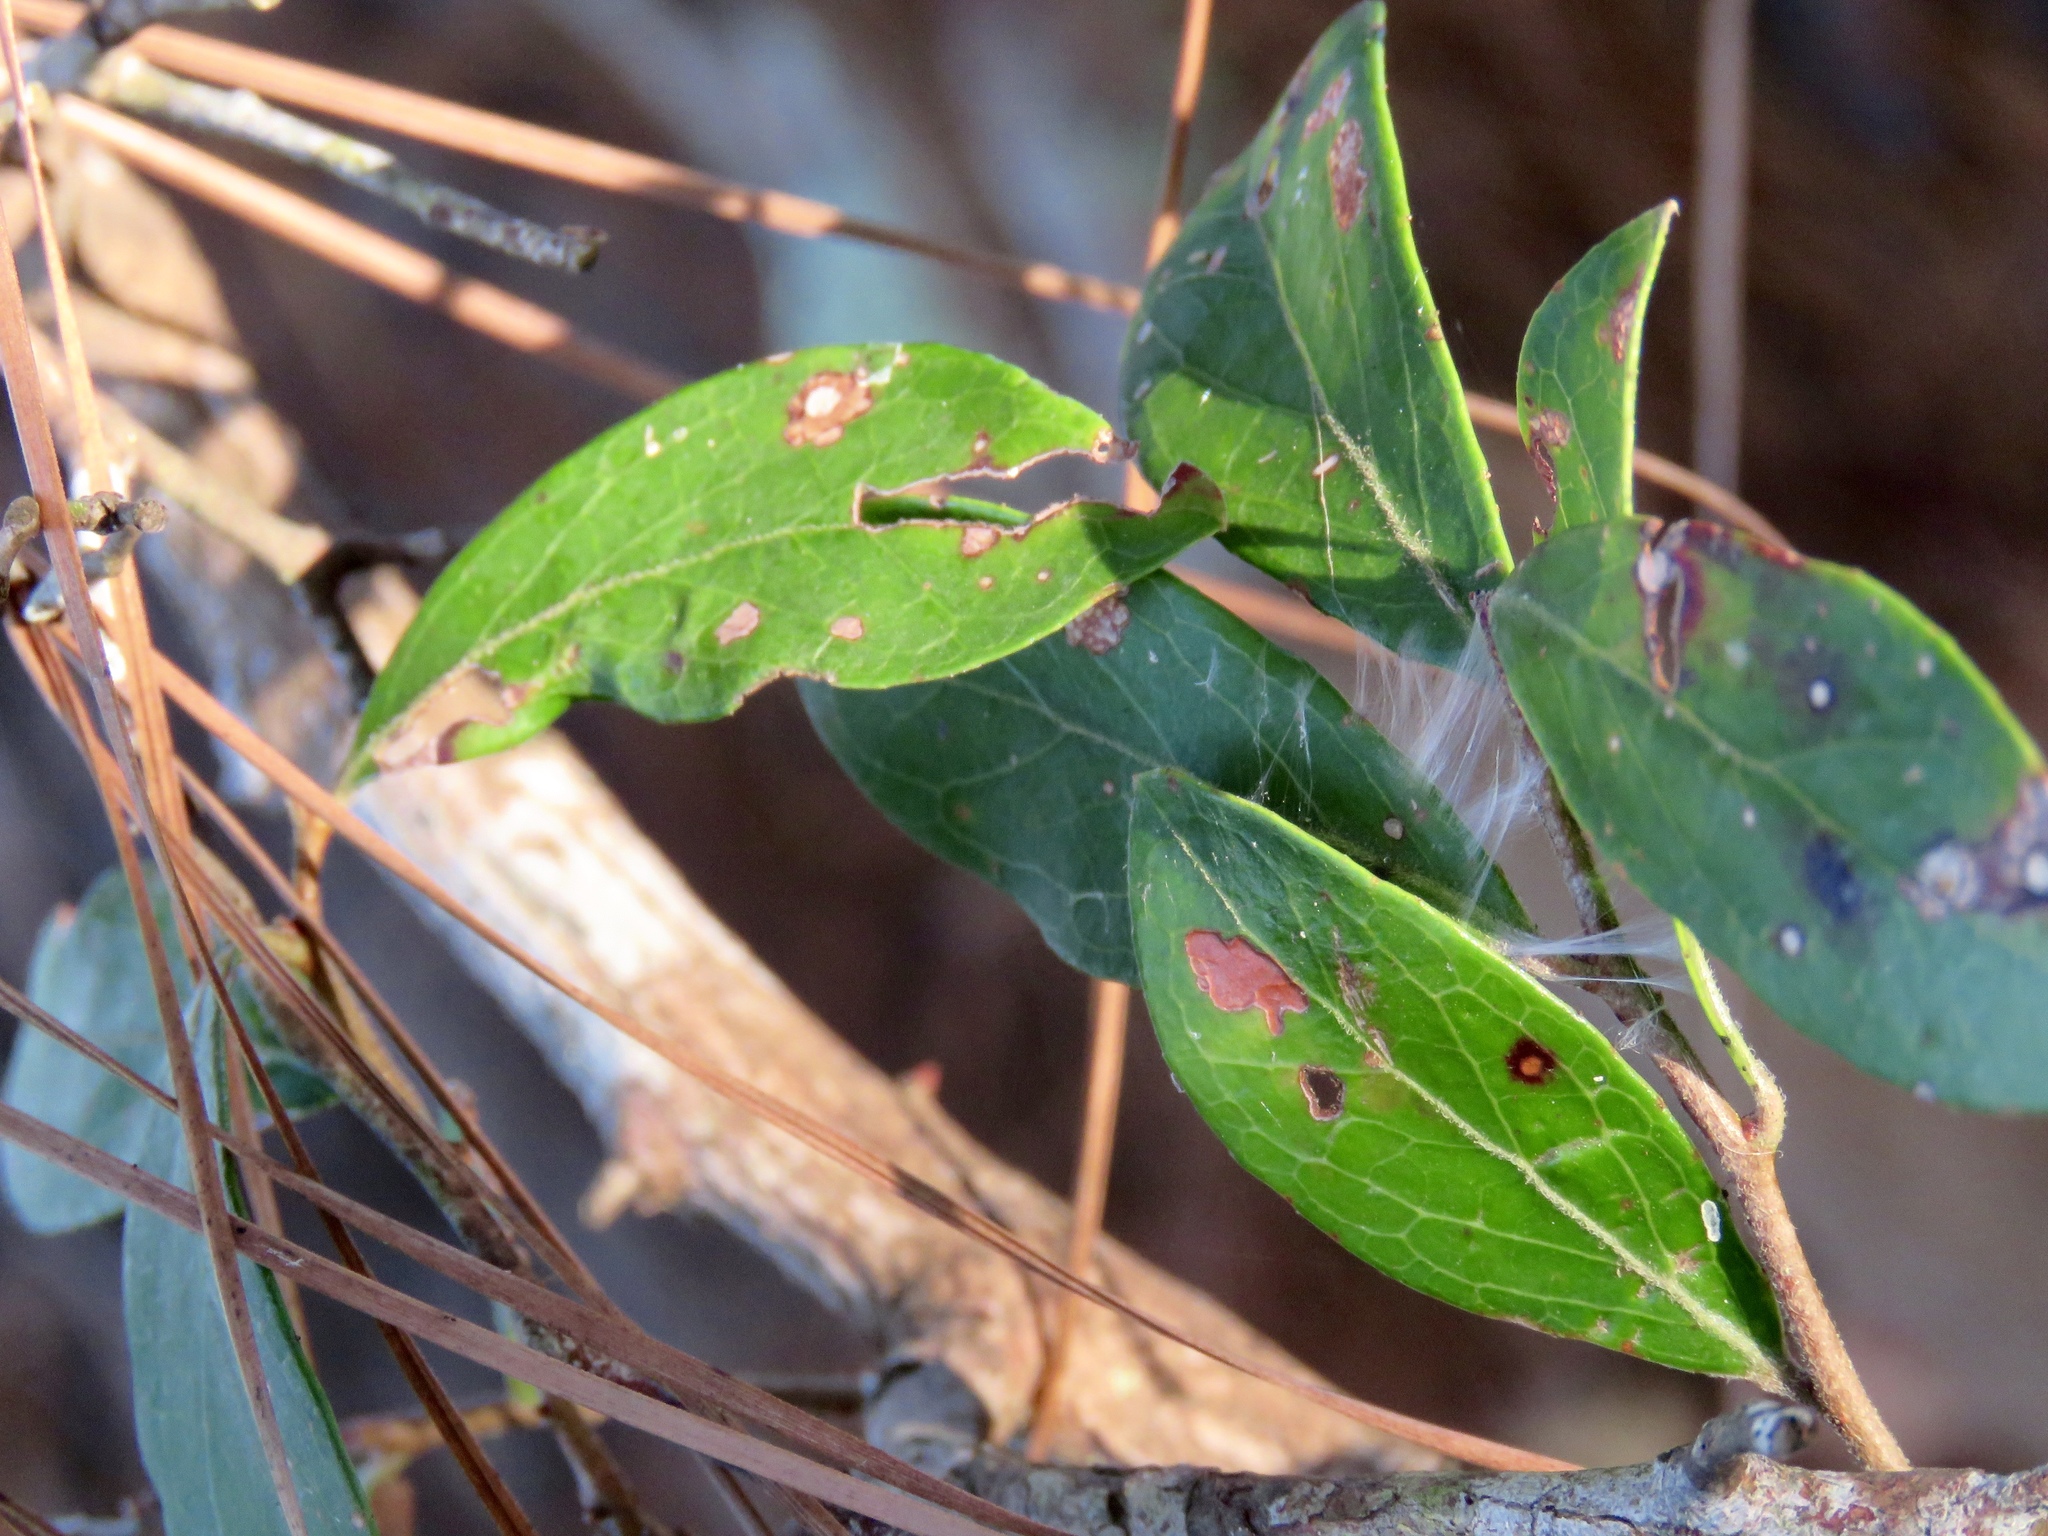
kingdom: Plantae
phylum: Tracheophyta
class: Magnoliopsida
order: Ericales
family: Ericaceae
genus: Vaccinium
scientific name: Vaccinium arboreum
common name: Farkleberry
